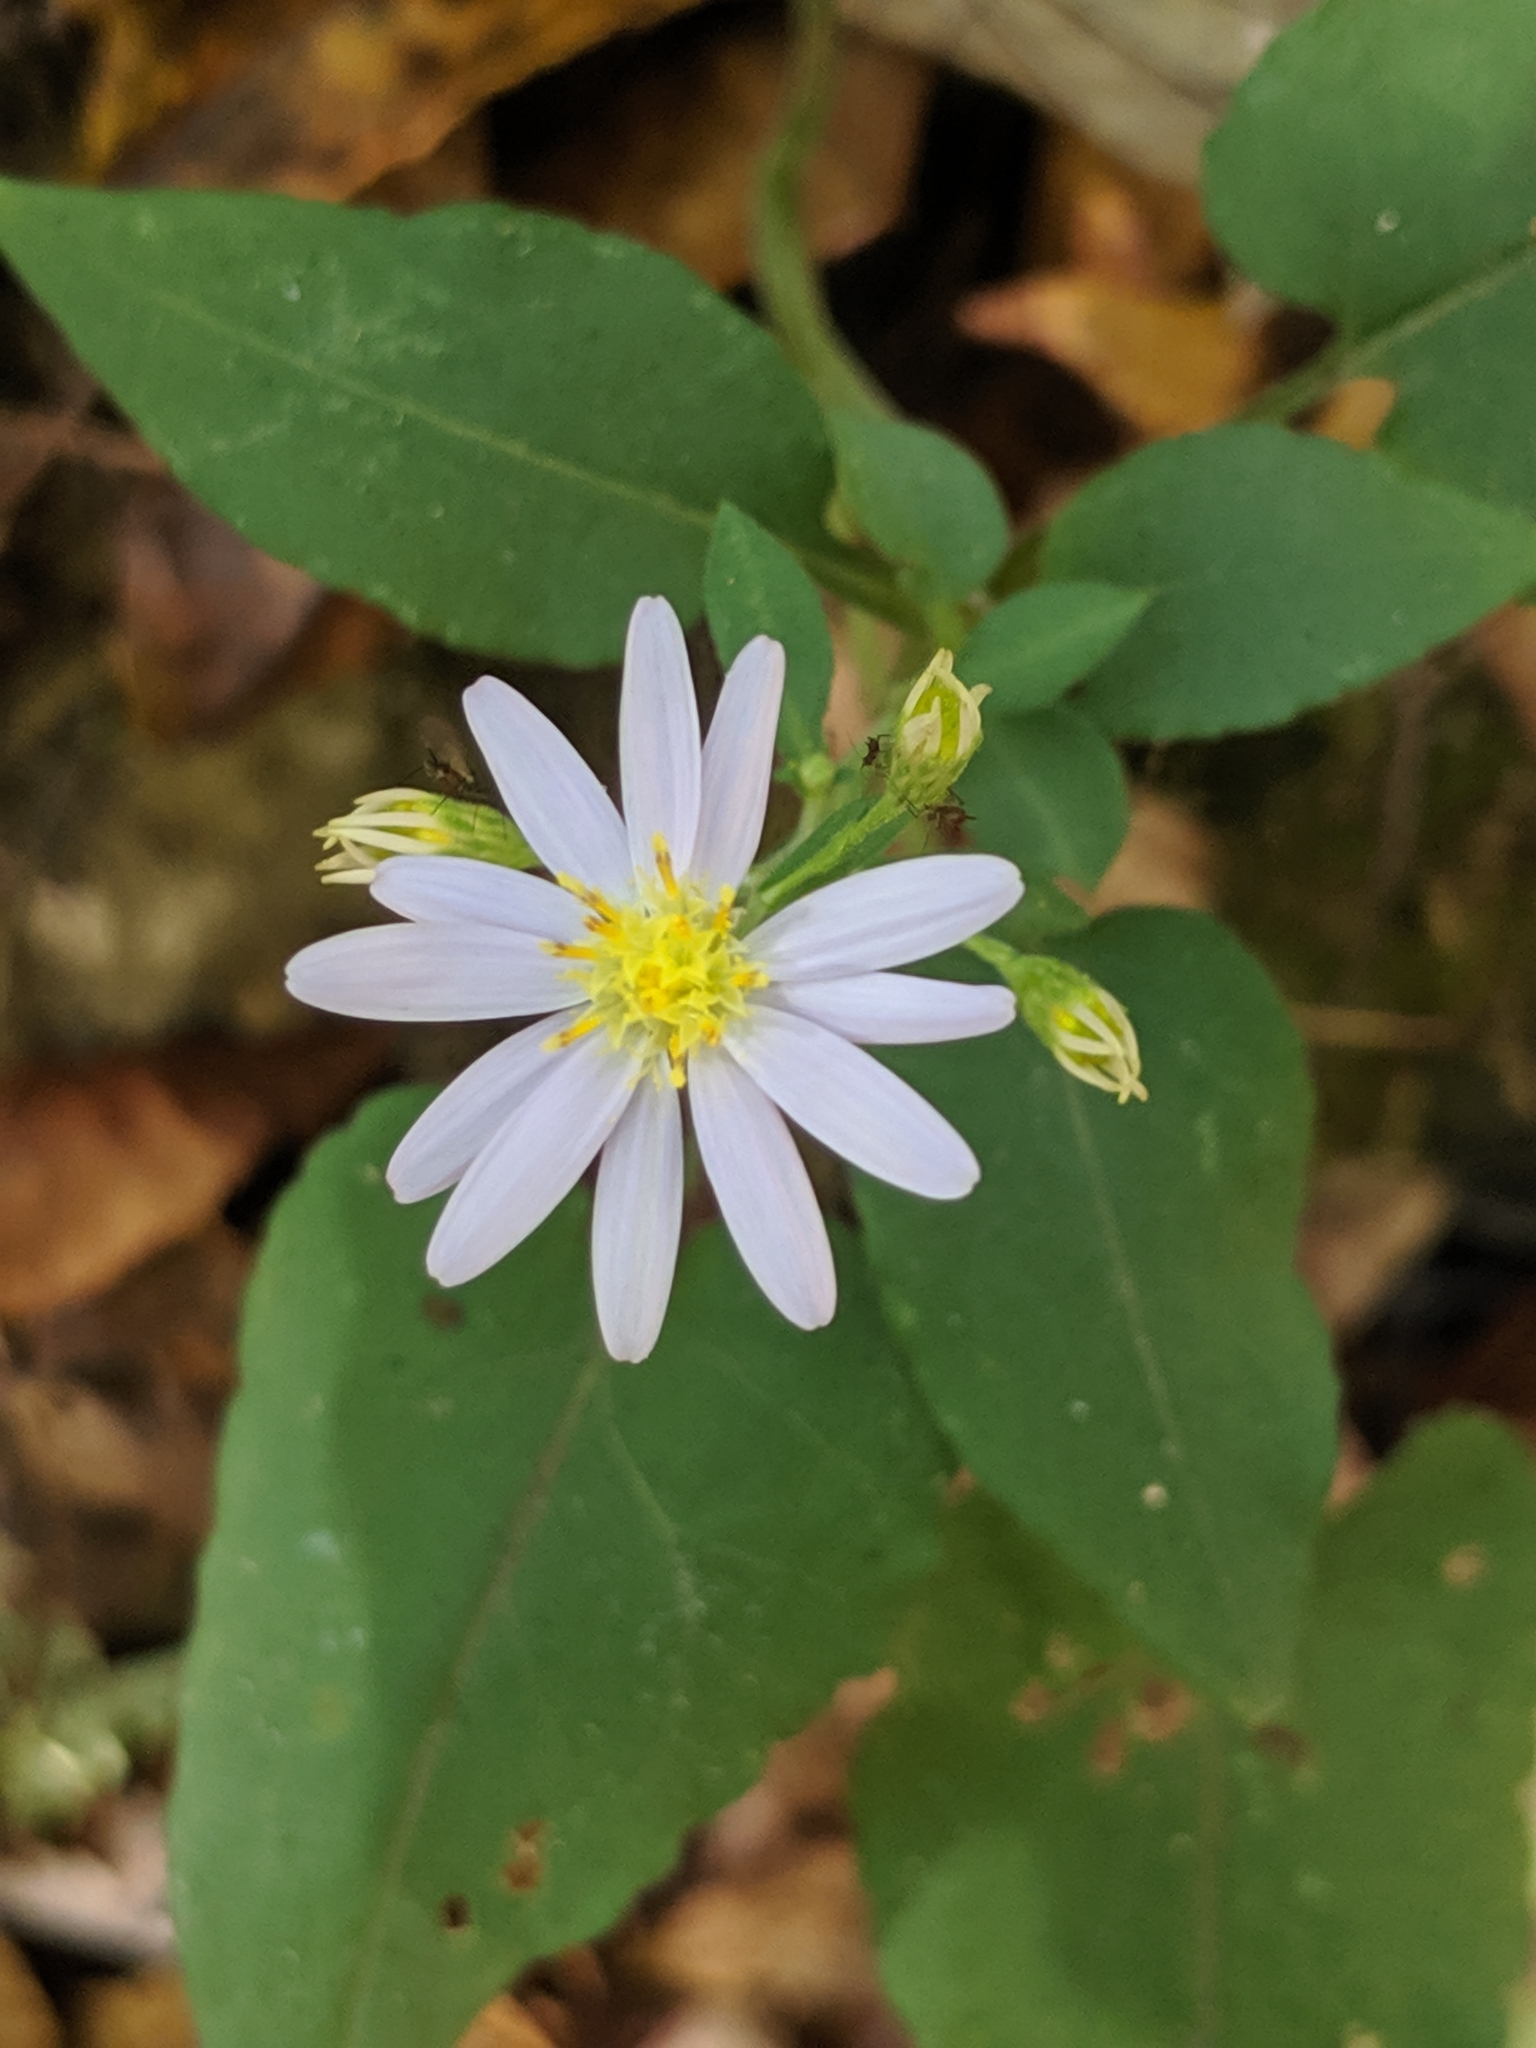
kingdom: Plantae
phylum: Tracheophyta
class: Magnoliopsida
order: Asterales
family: Asteraceae
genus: Symphyotrichum
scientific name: Symphyotrichum undulatum
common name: Clasping heart-leaf aster
